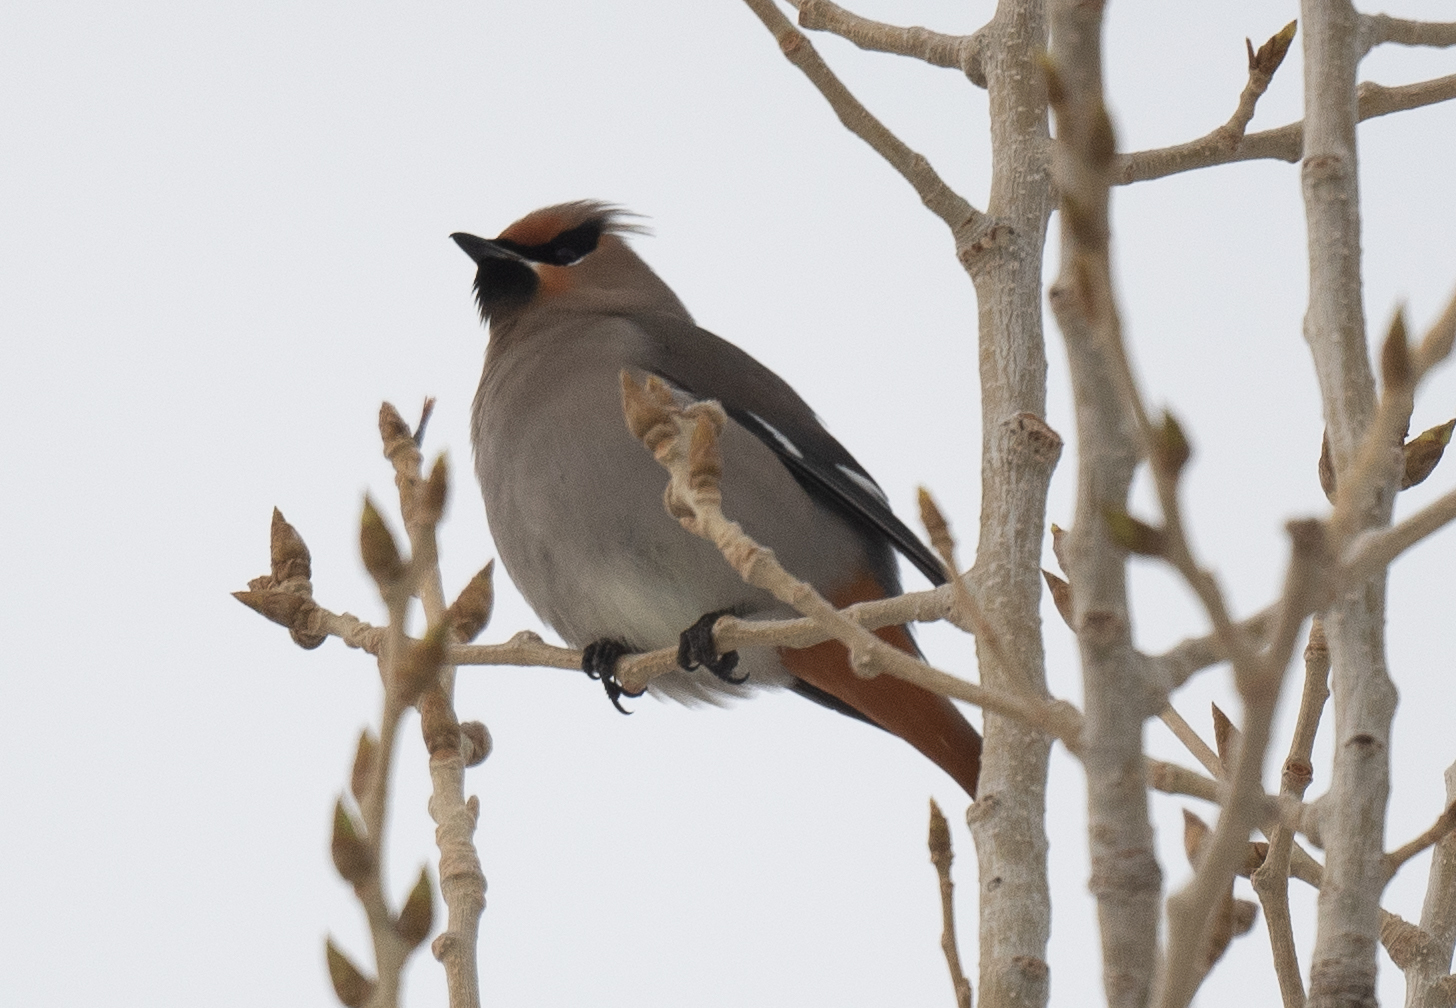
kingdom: Animalia
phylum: Chordata
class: Aves
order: Passeriformes
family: Bombycillidae
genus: Bombycilla
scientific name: Bombycilla garrulus
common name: Bohemian waxwing
